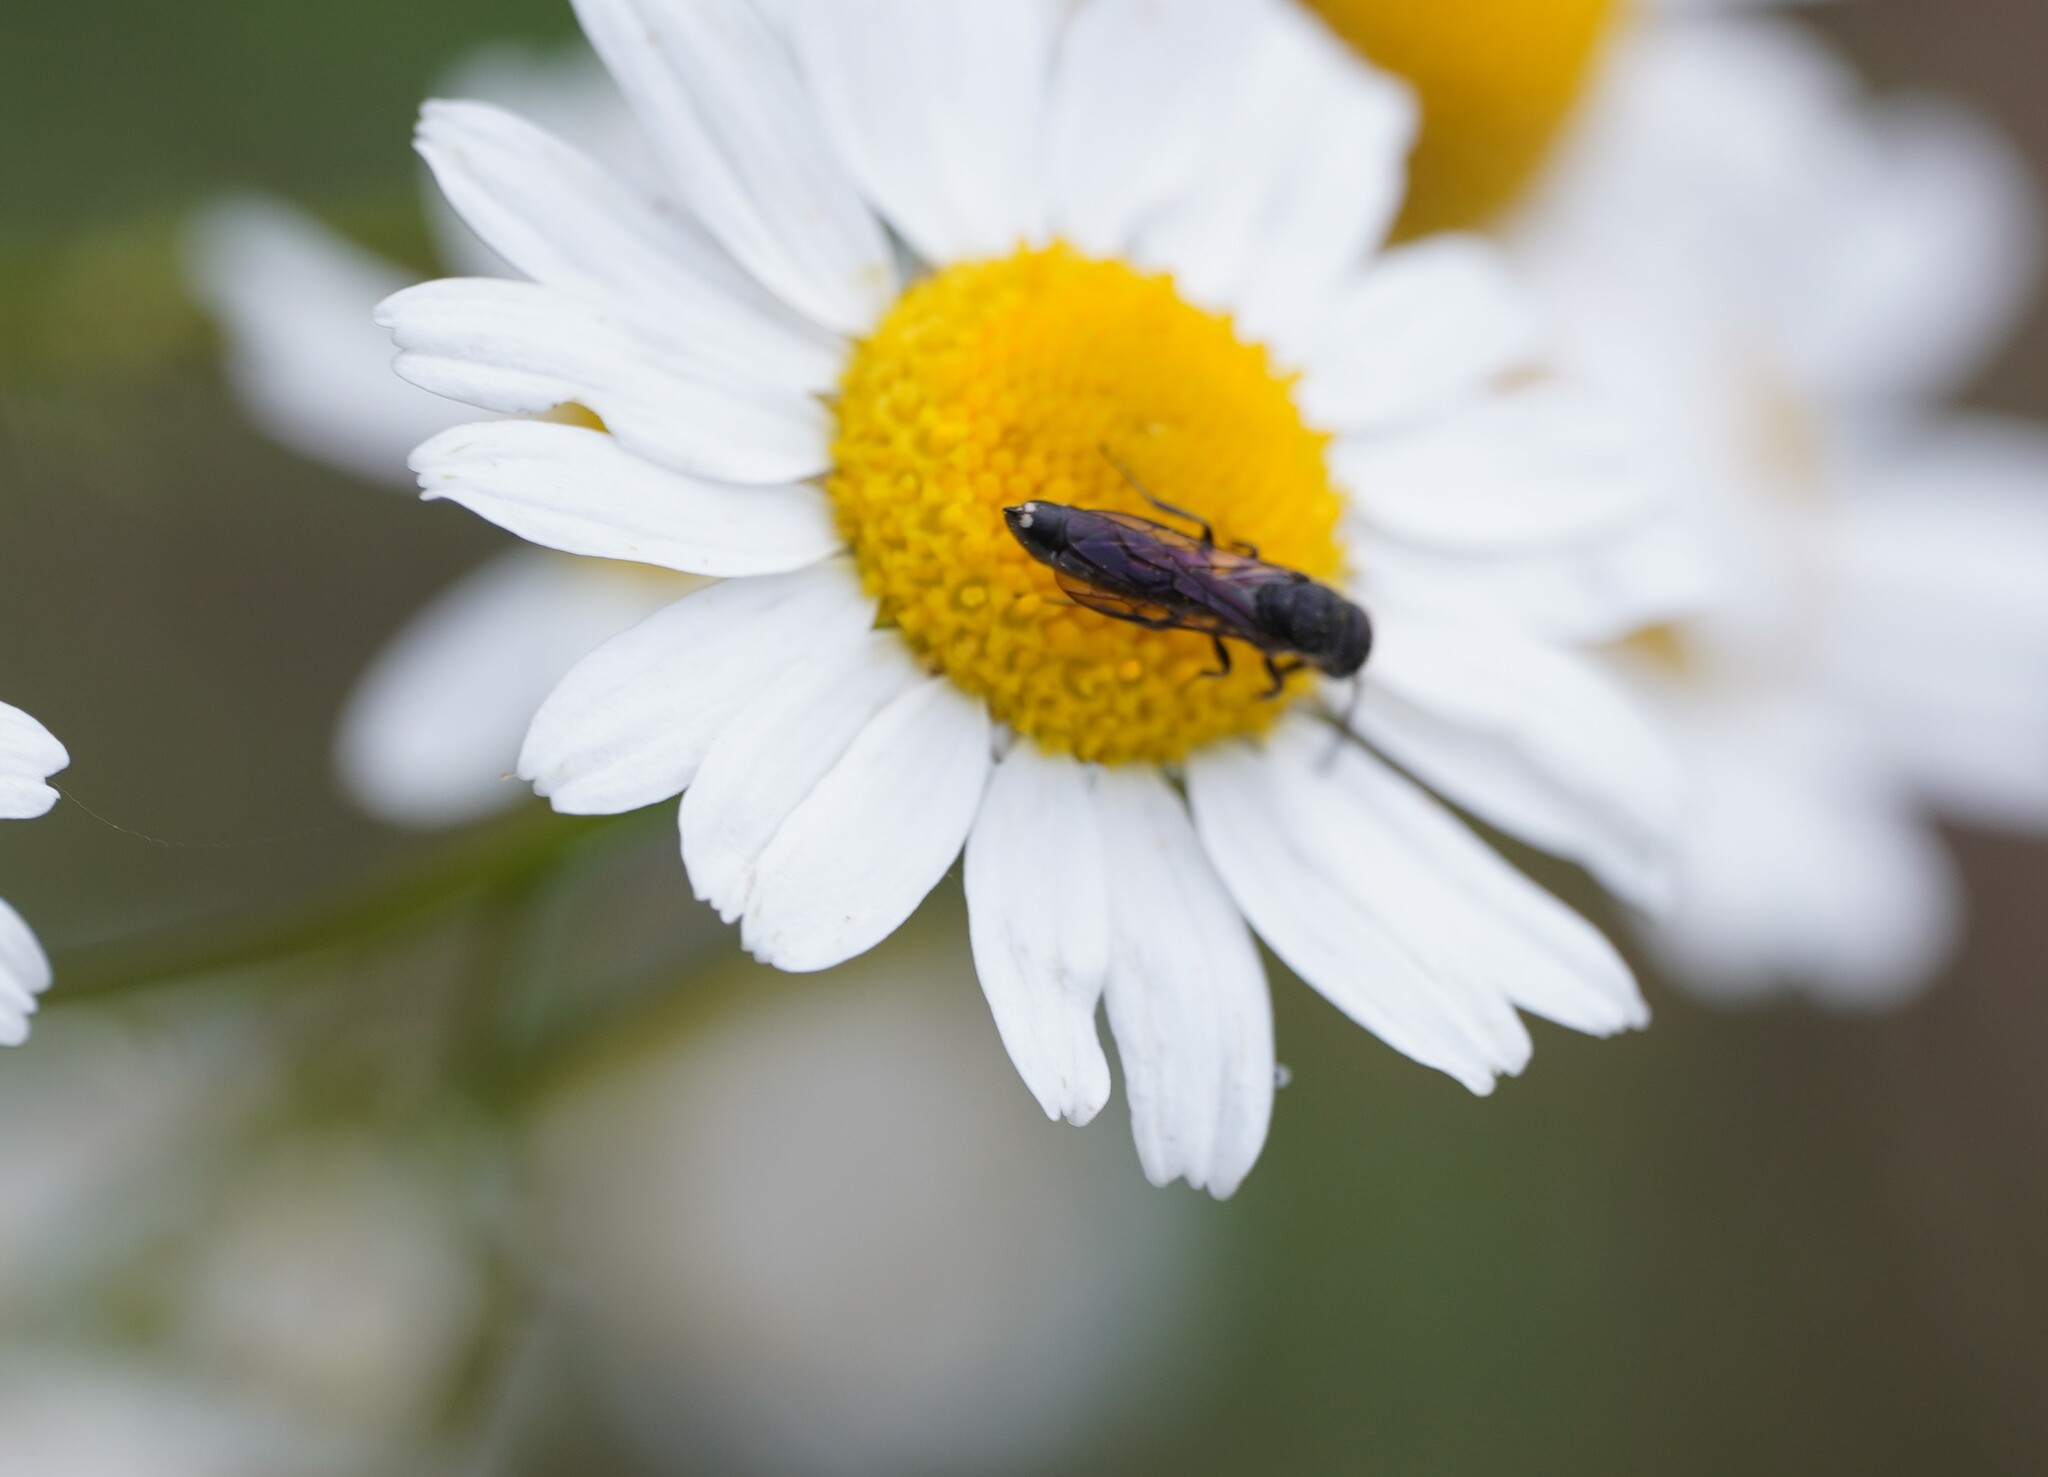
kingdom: Animalia
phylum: Arthropoda
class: Insecta
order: Hymenoptera
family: Sapygidae
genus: Sapygina
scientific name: Sapygina decemguttata
